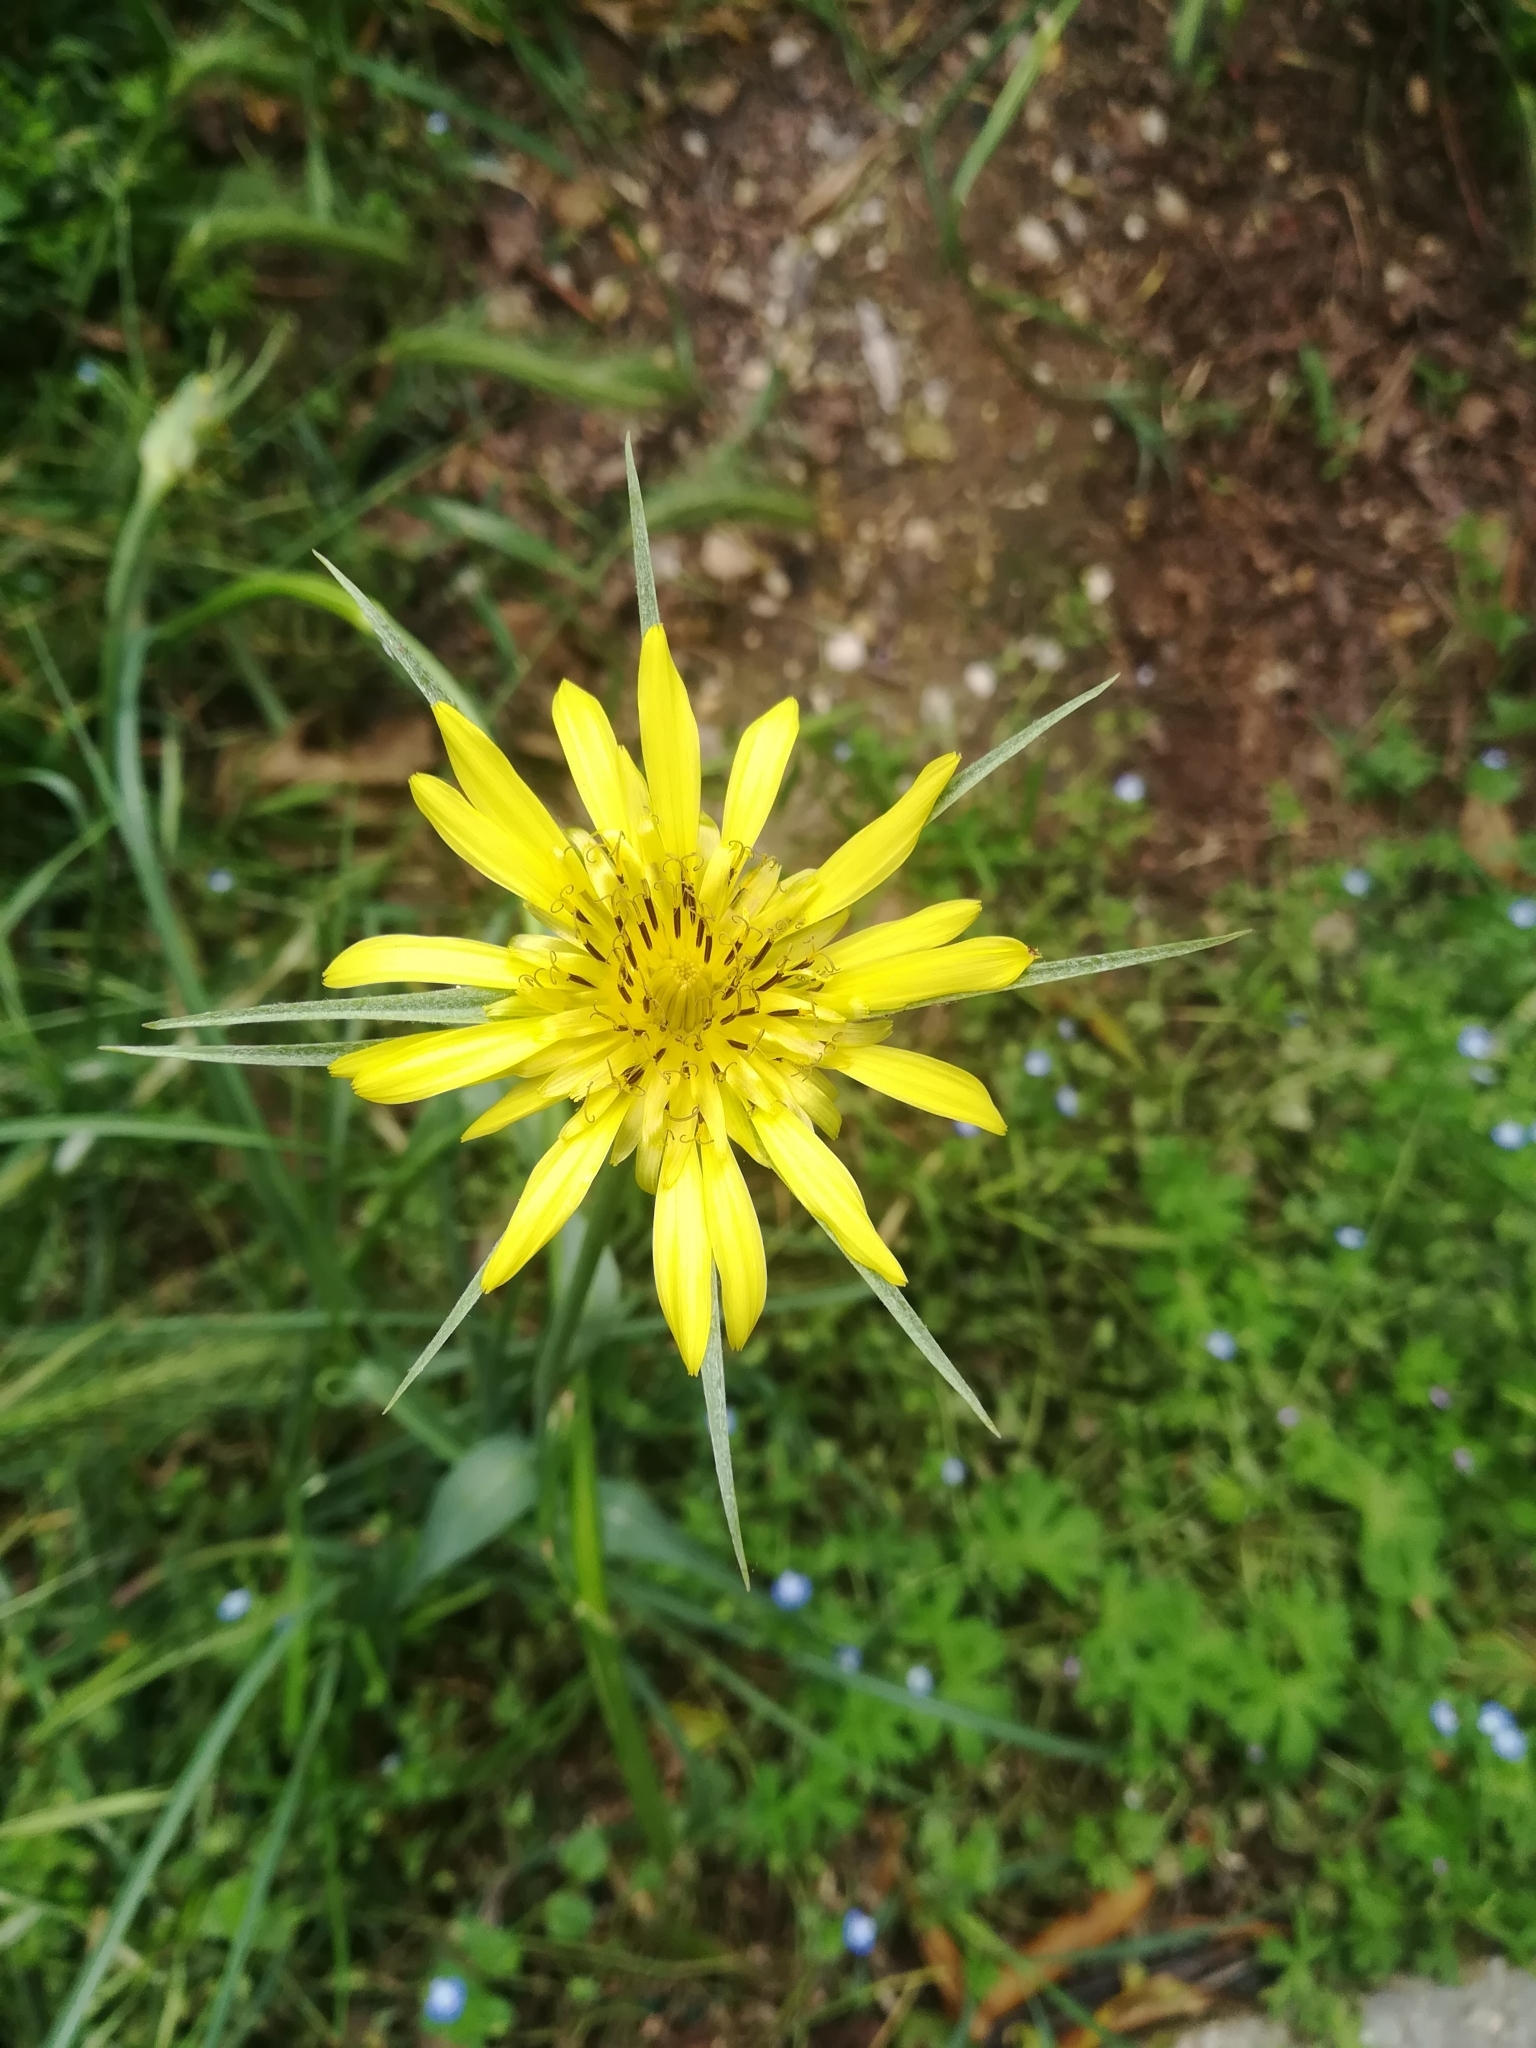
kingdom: Plantae
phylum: Tracheophyta
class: Magnoliopsida
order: Asterales
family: Asteraceae
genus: Tragopogon
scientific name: Tragopogon dubius
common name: Yellow salsify
